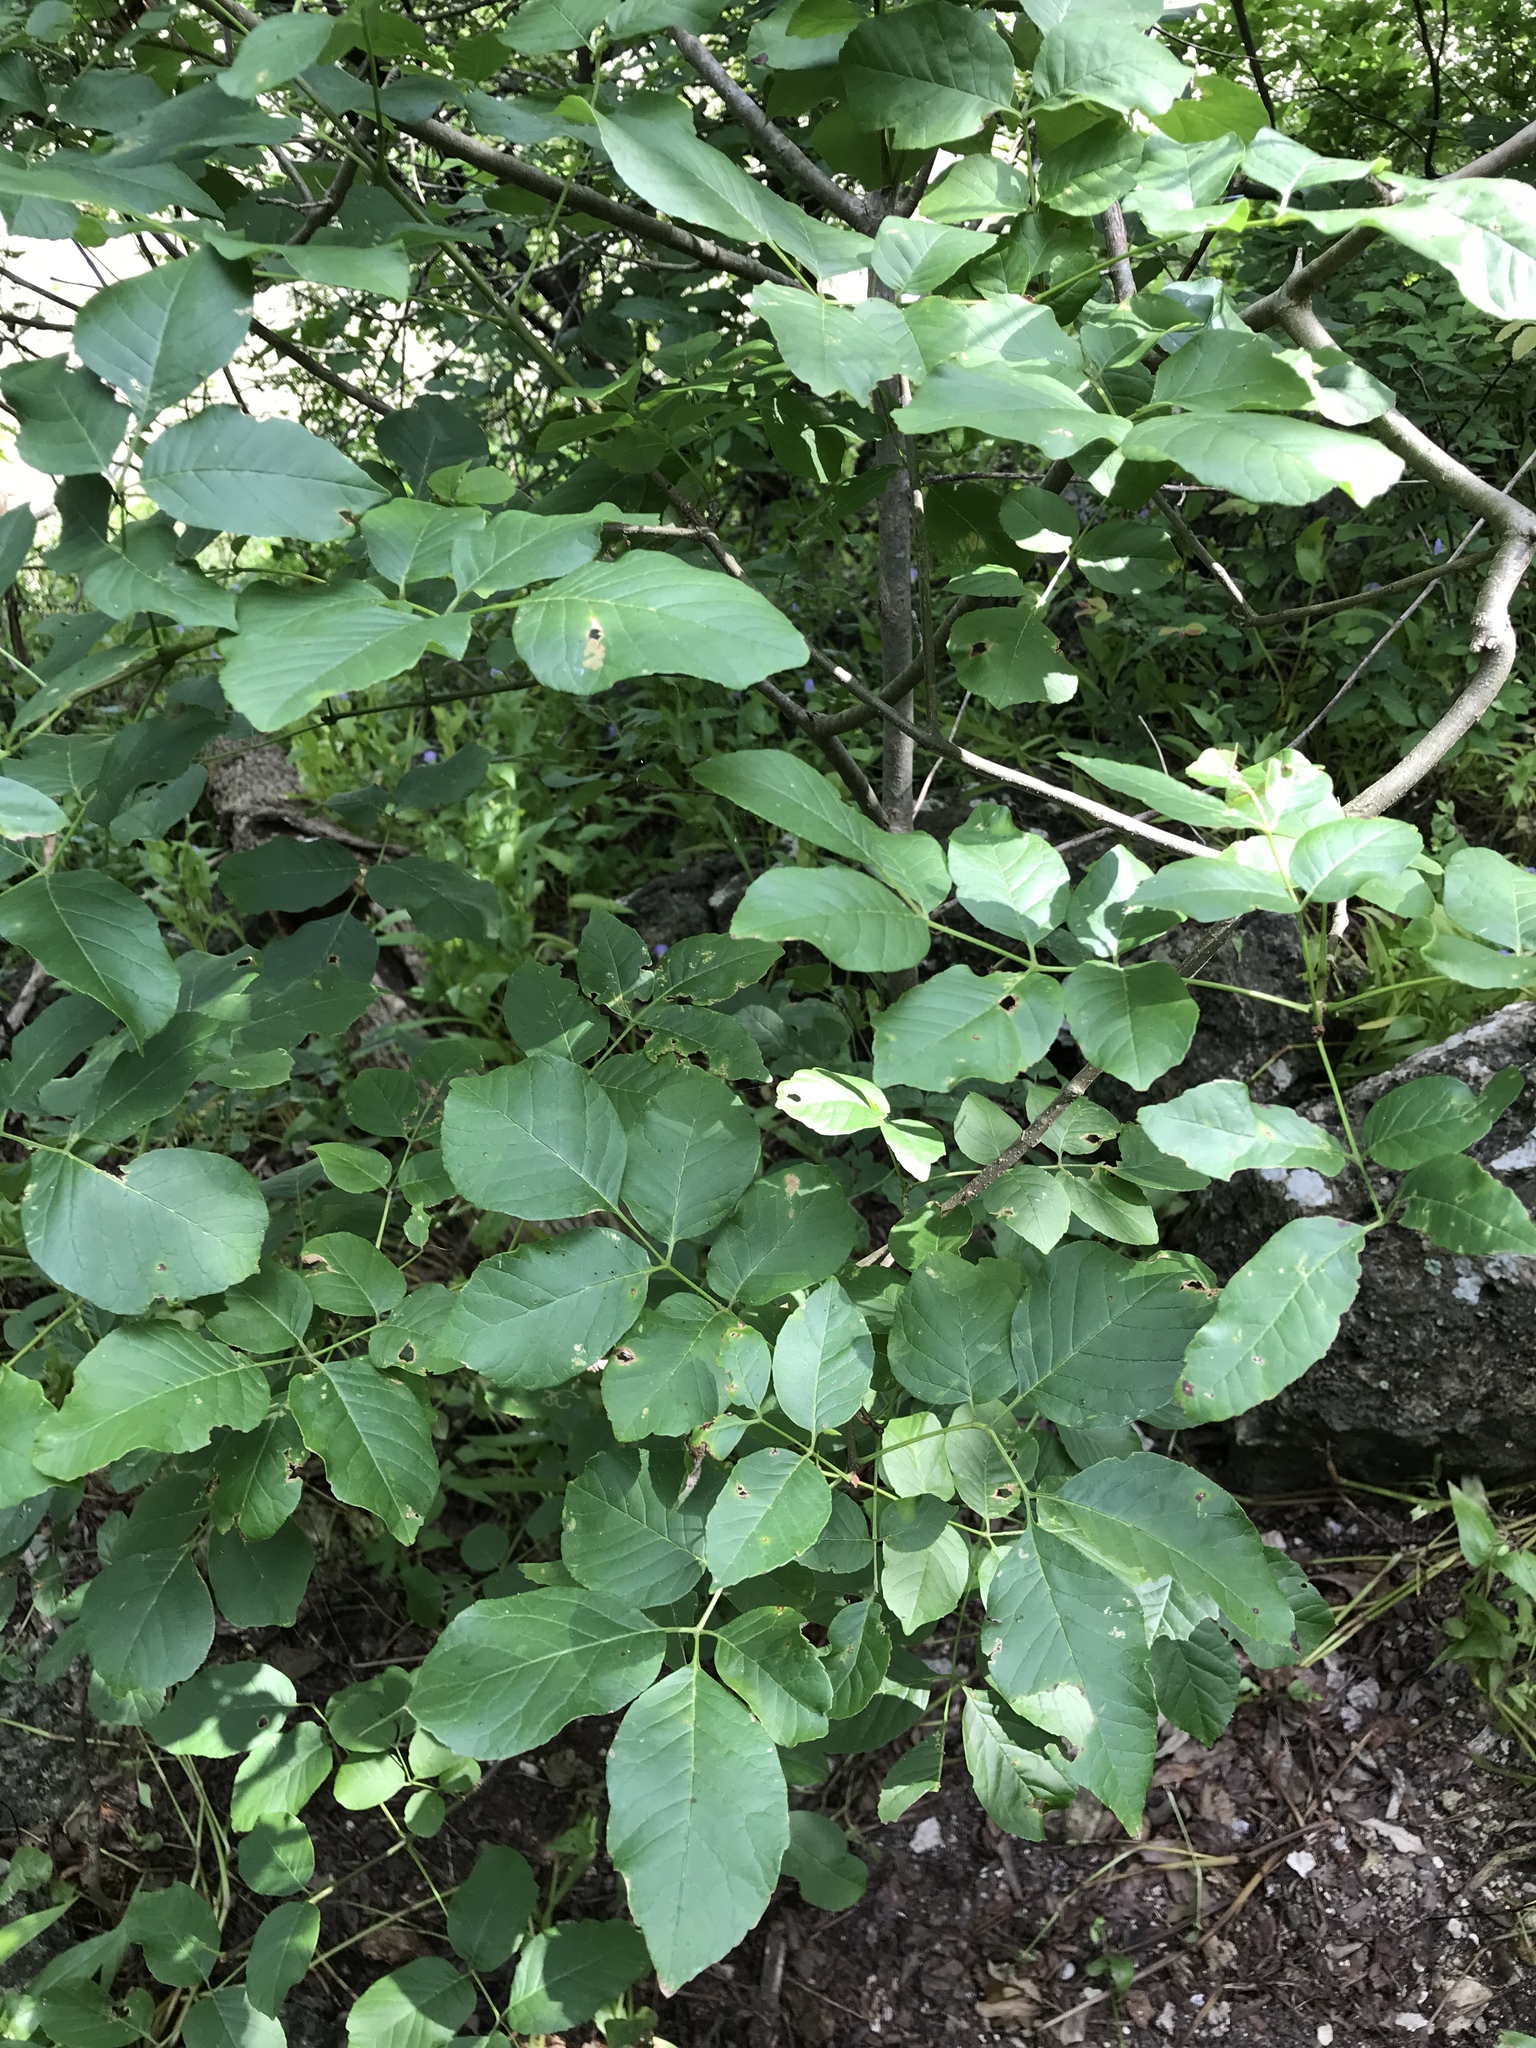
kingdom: Plantae
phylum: Tracheophyta
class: Magnoliopsida
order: Lamiales
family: Oleaceae
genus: Fraxinus
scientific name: Fraxinus albicans
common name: Texas ash
